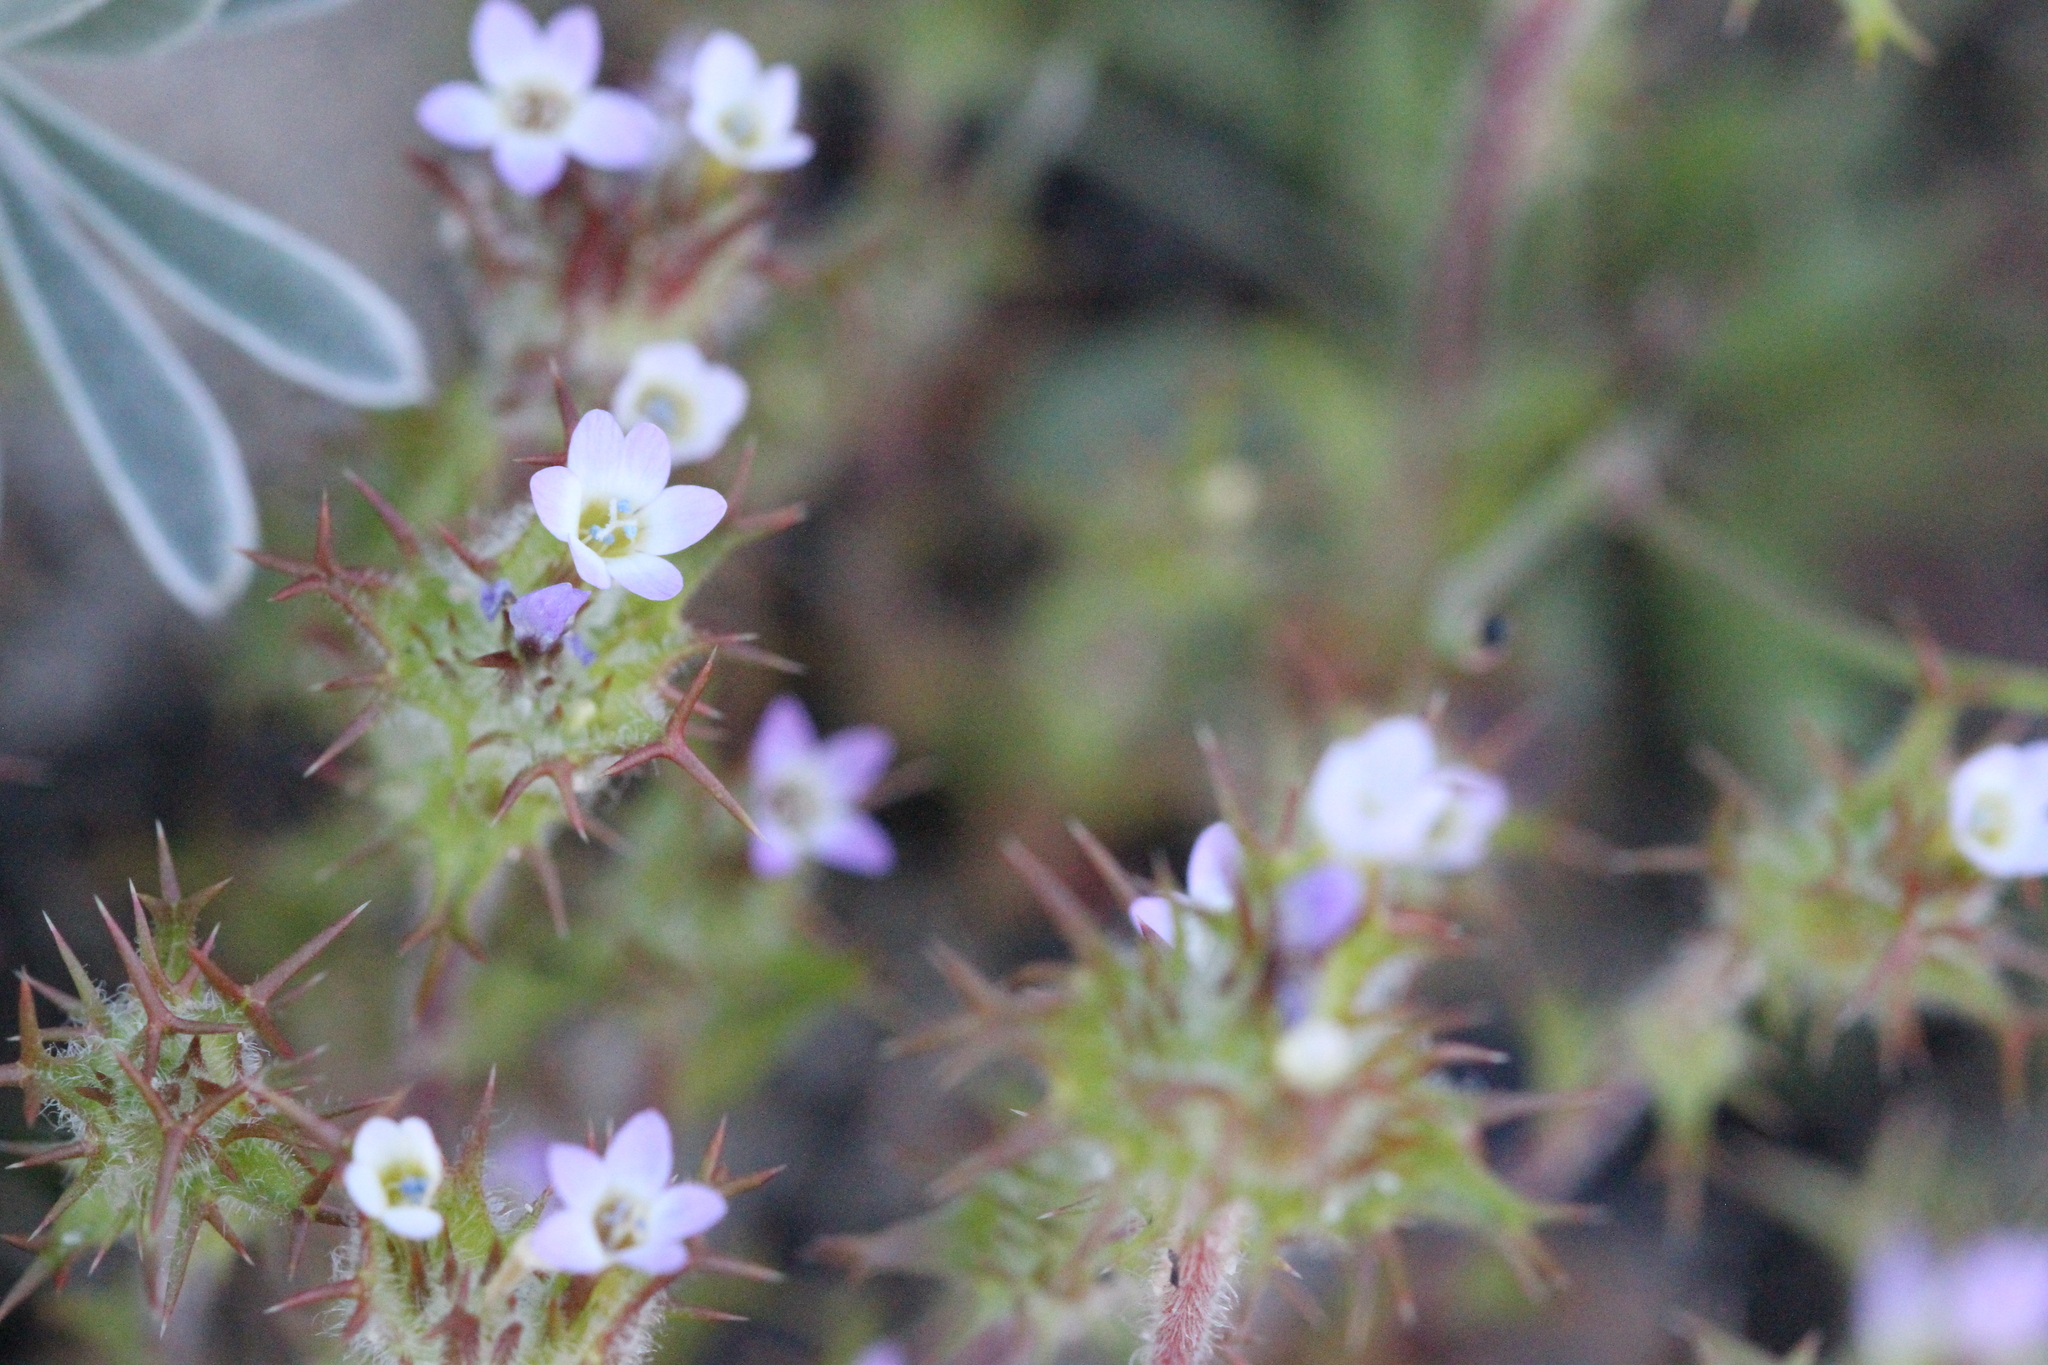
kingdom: Plantae
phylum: Tracheophyta
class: Magnoliopsida
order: Ericales
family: Polemoniaceae
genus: Navarretia
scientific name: Navarretia hamata
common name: Hooked navarretia
